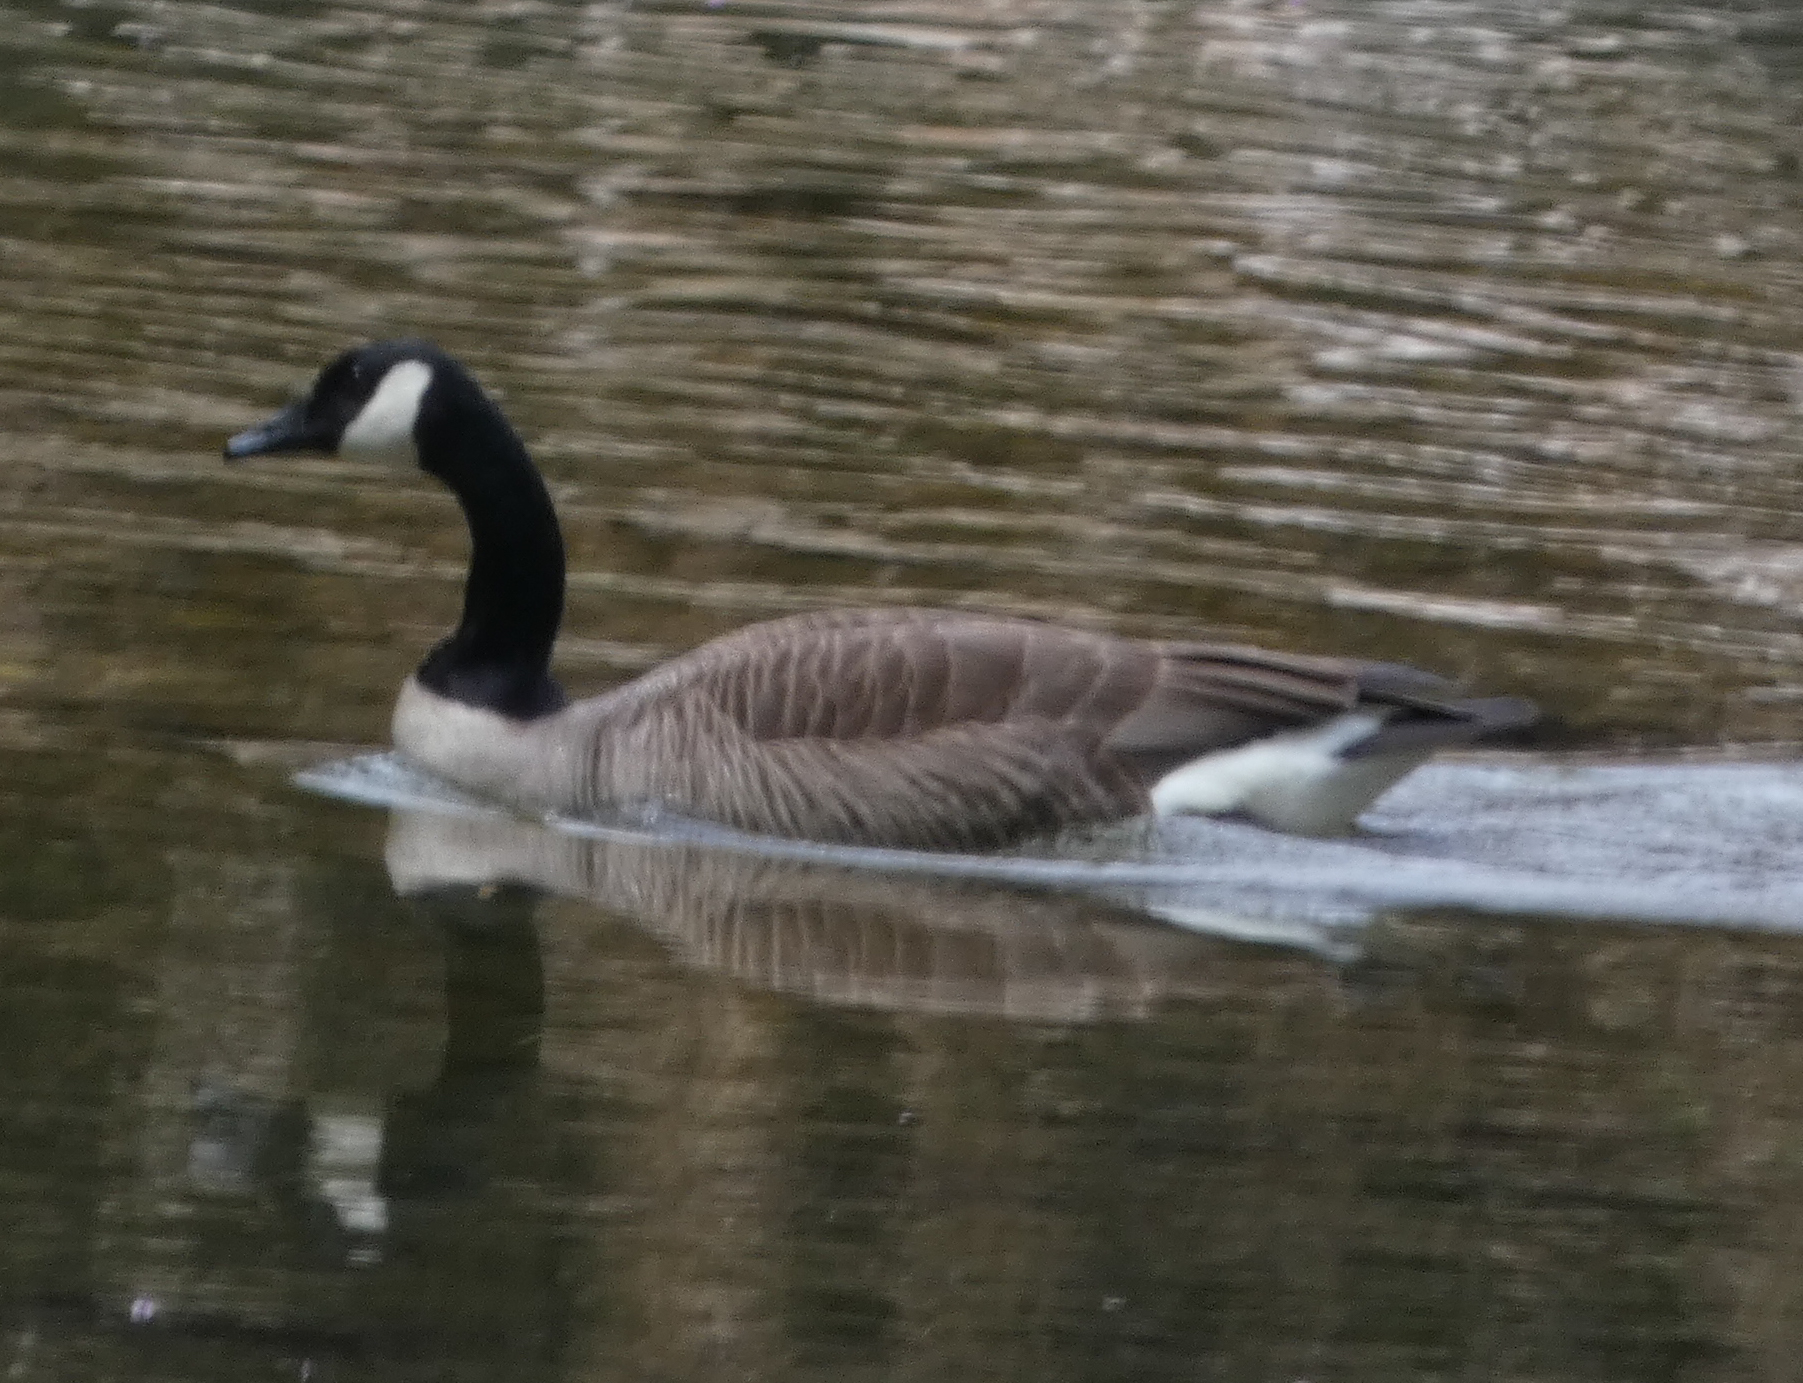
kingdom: Animalia
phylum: Chordata
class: Aves
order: Anseriformes
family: Anatidae
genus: Branta
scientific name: Branta canadensis
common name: Canada goose
